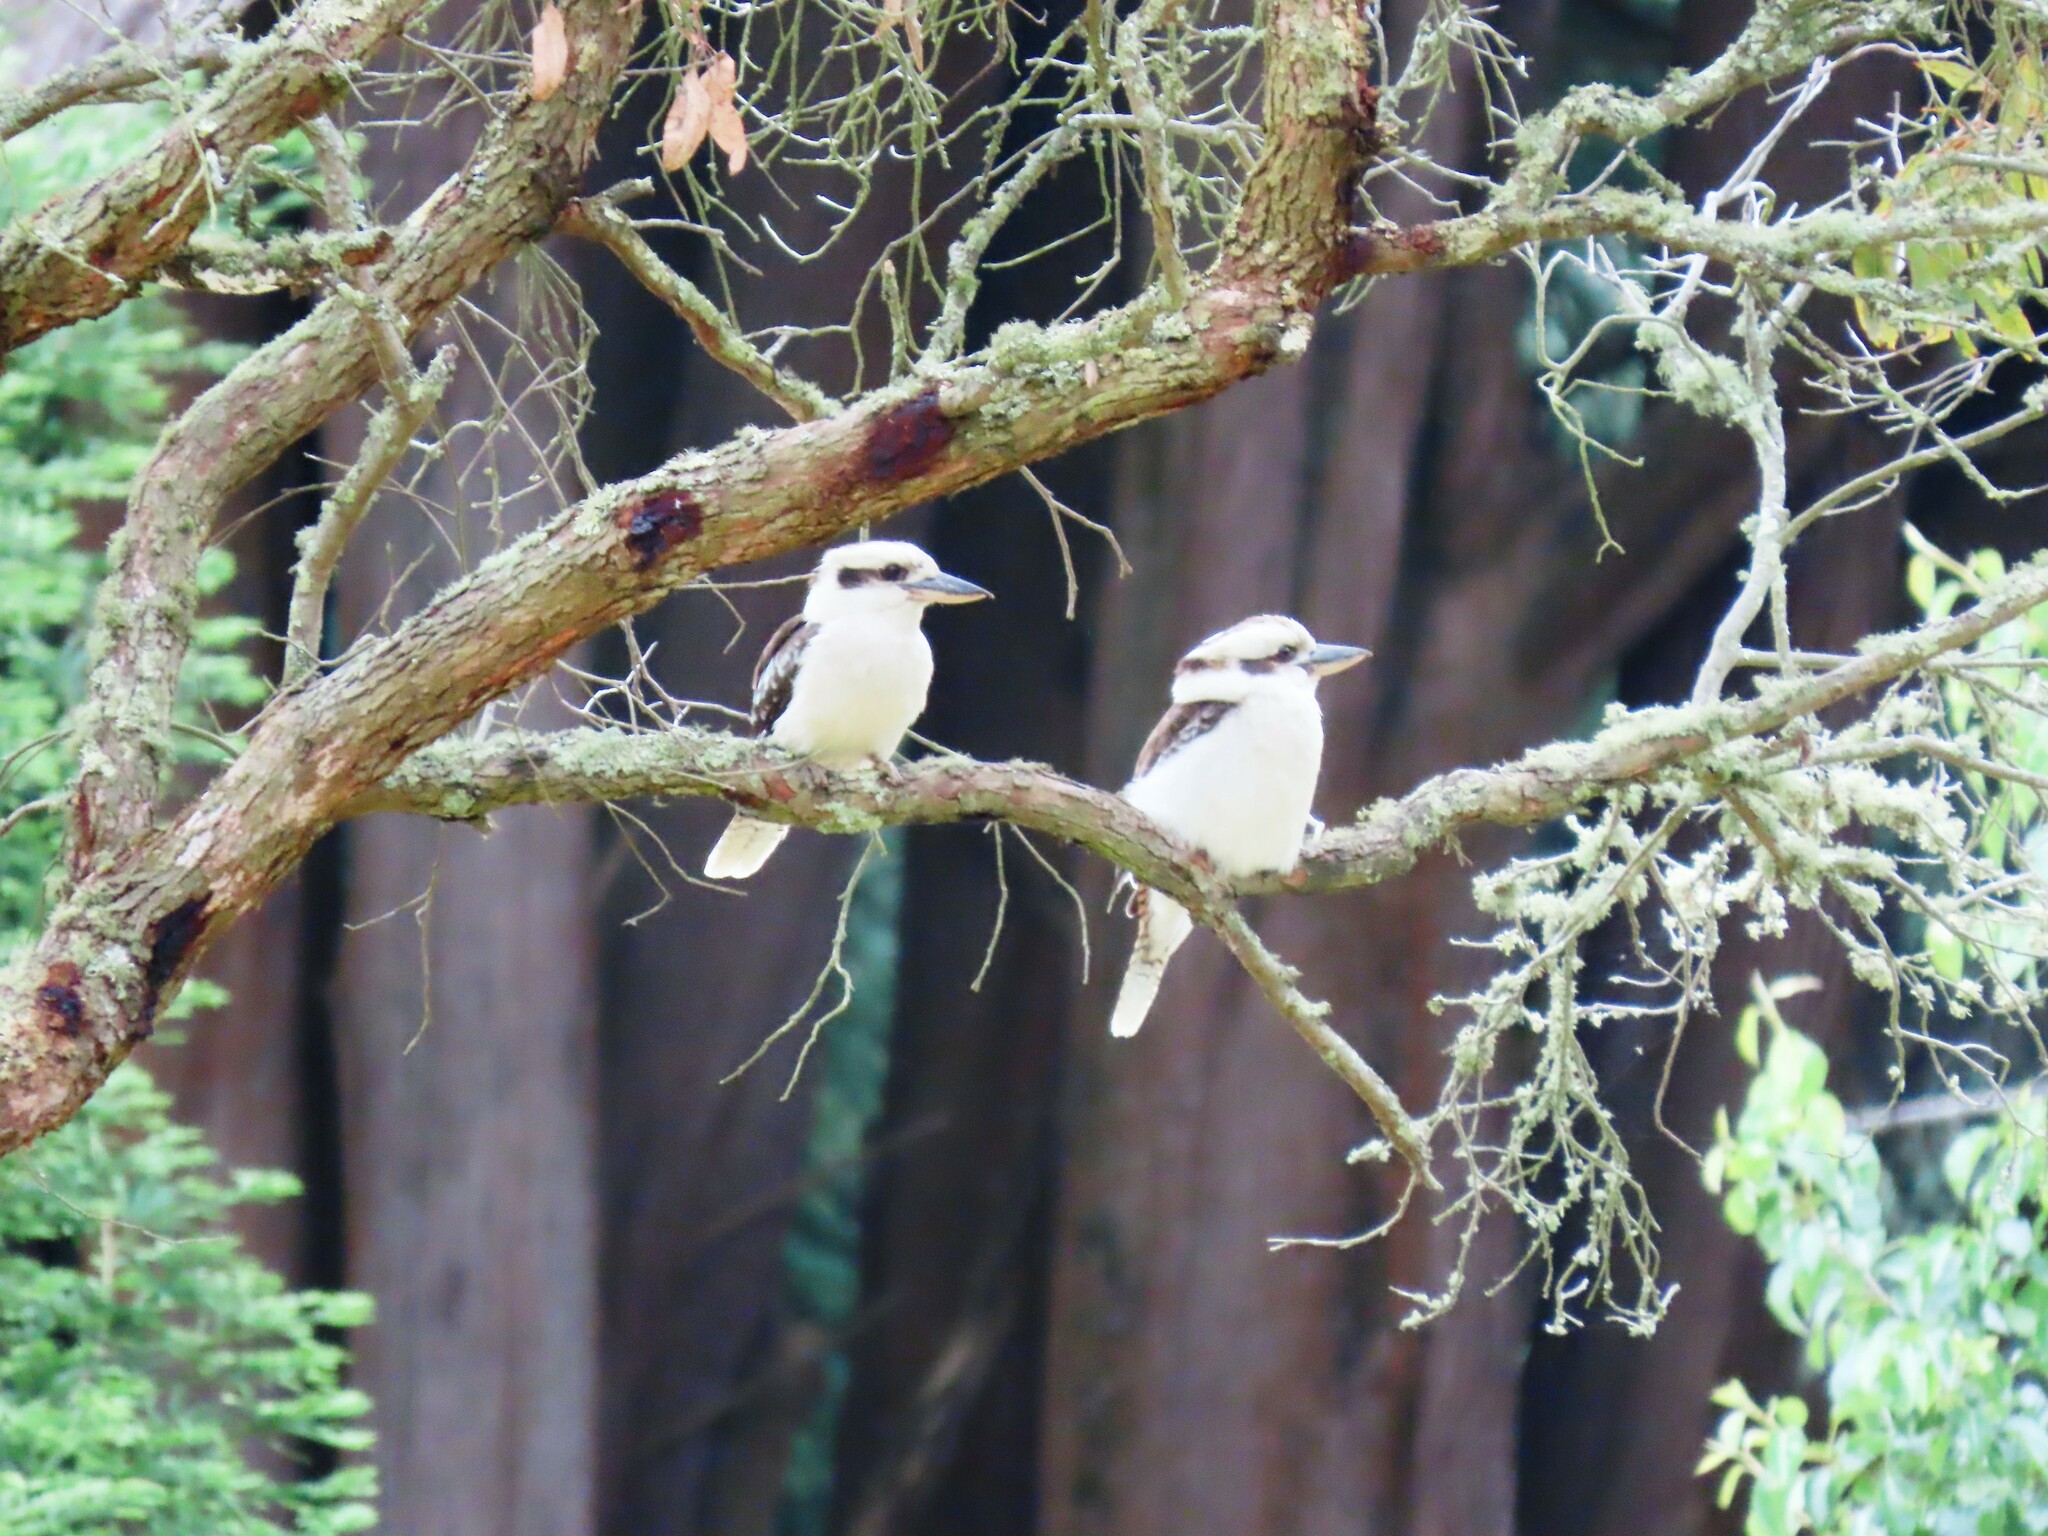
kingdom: Animalia
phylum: Chordata
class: Aves
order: Coraciiformes
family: Alcedinidae
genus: Dacelo
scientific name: Dacelo novaeguineae
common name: Laughing kookaburra
